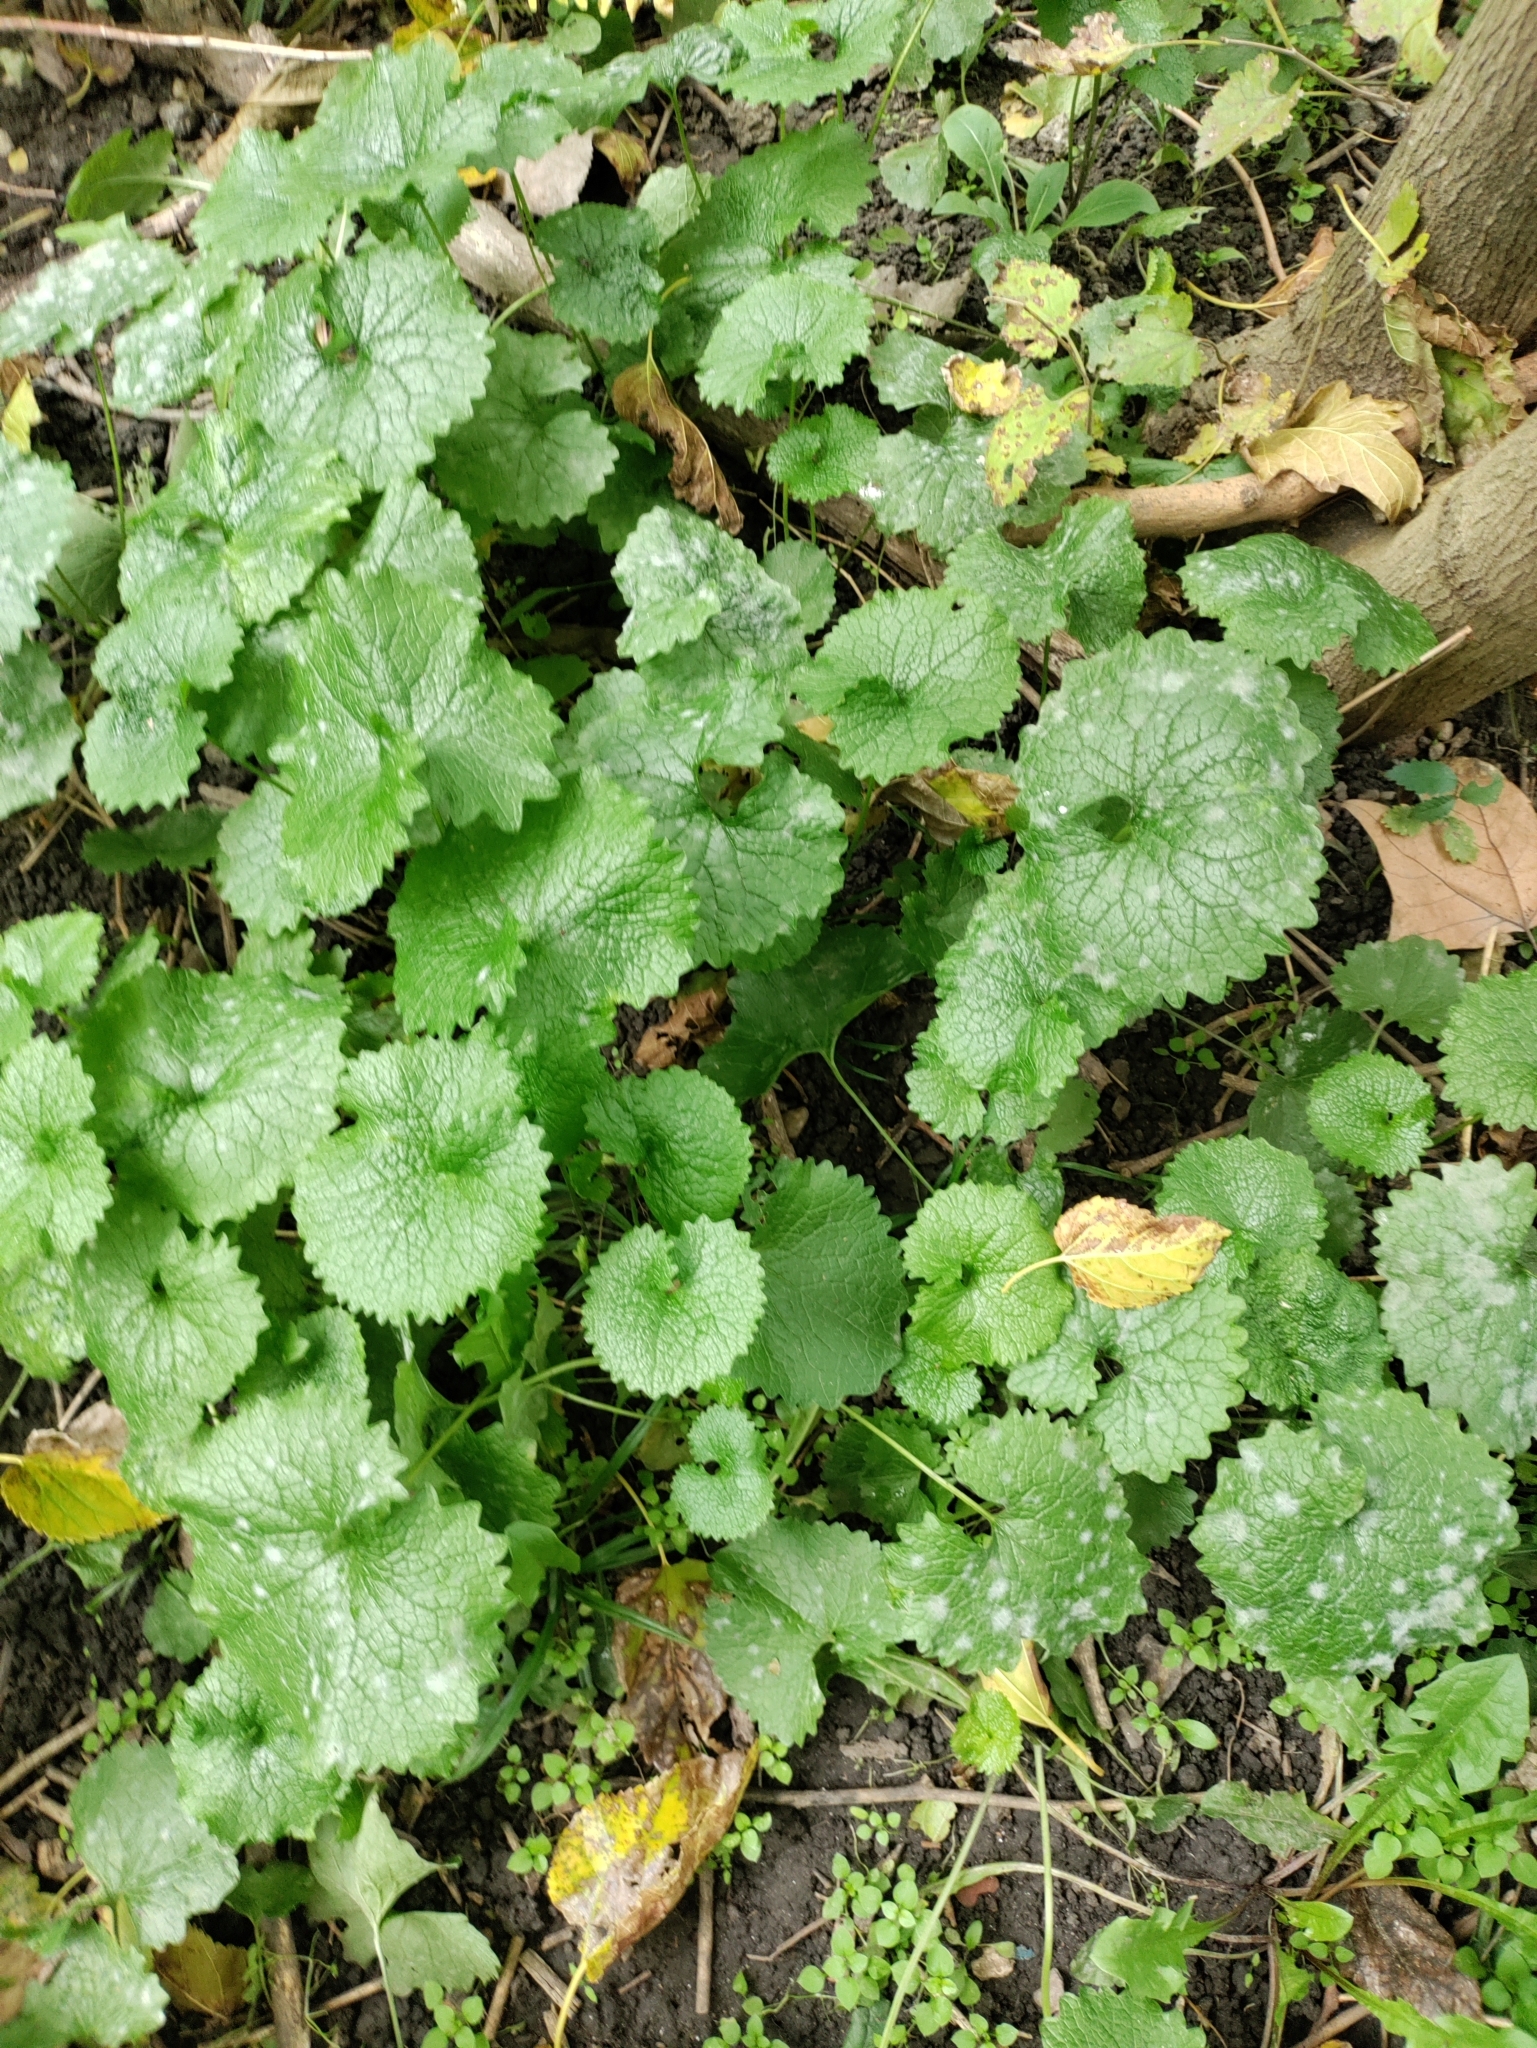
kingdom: Fungi
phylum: Ascomycota
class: Leotiomycetes
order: Helotiales
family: Erysiphaceae
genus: Erysiphe
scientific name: Erysiphe cruciferarum
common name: Brassica powdery mildew
